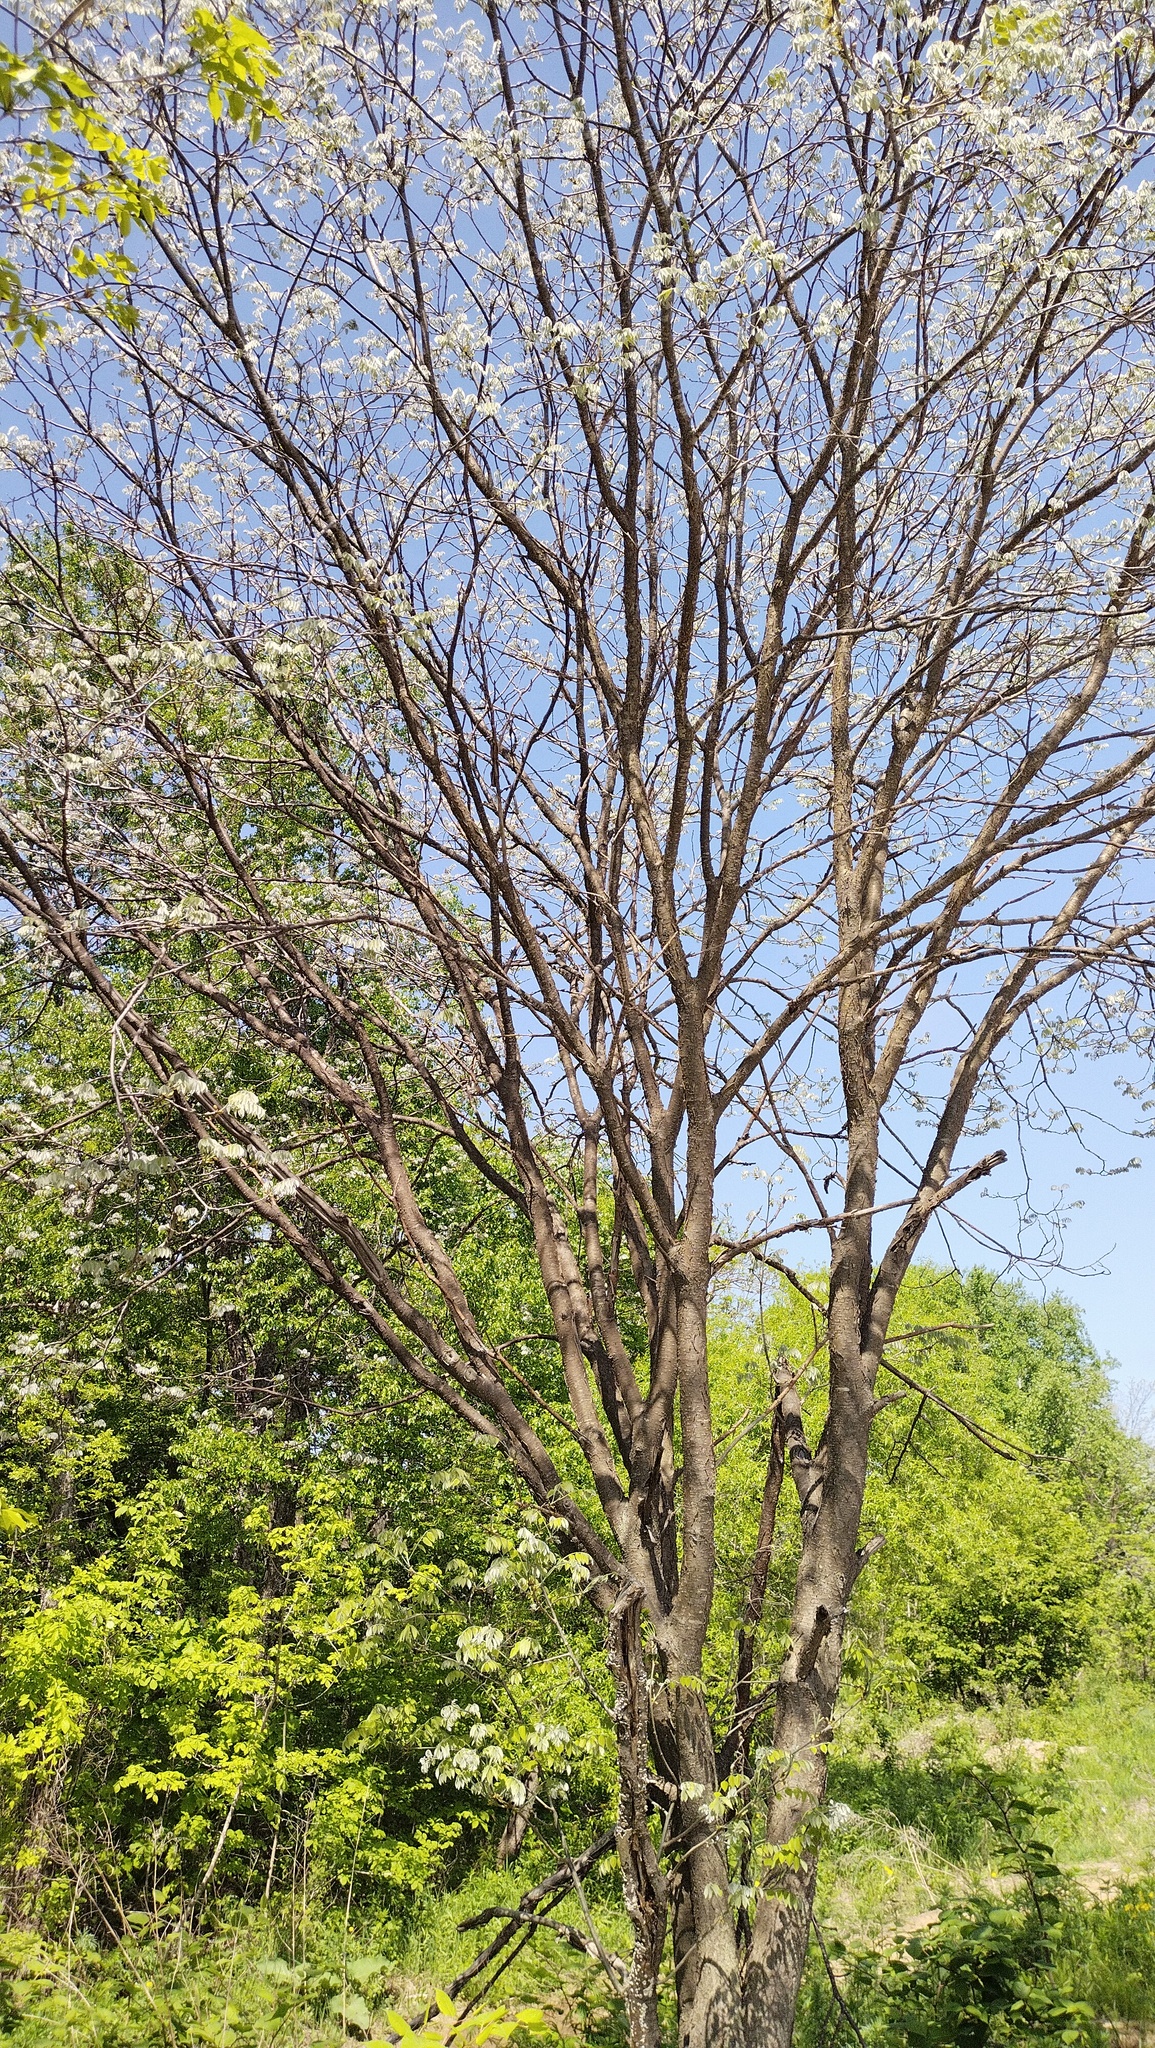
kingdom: Plantae
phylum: Tracheophyta
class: Magnoliopsida
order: Fabales
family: Fabaceae
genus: Maackia
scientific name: Maackia amurensis
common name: Amur maackia
